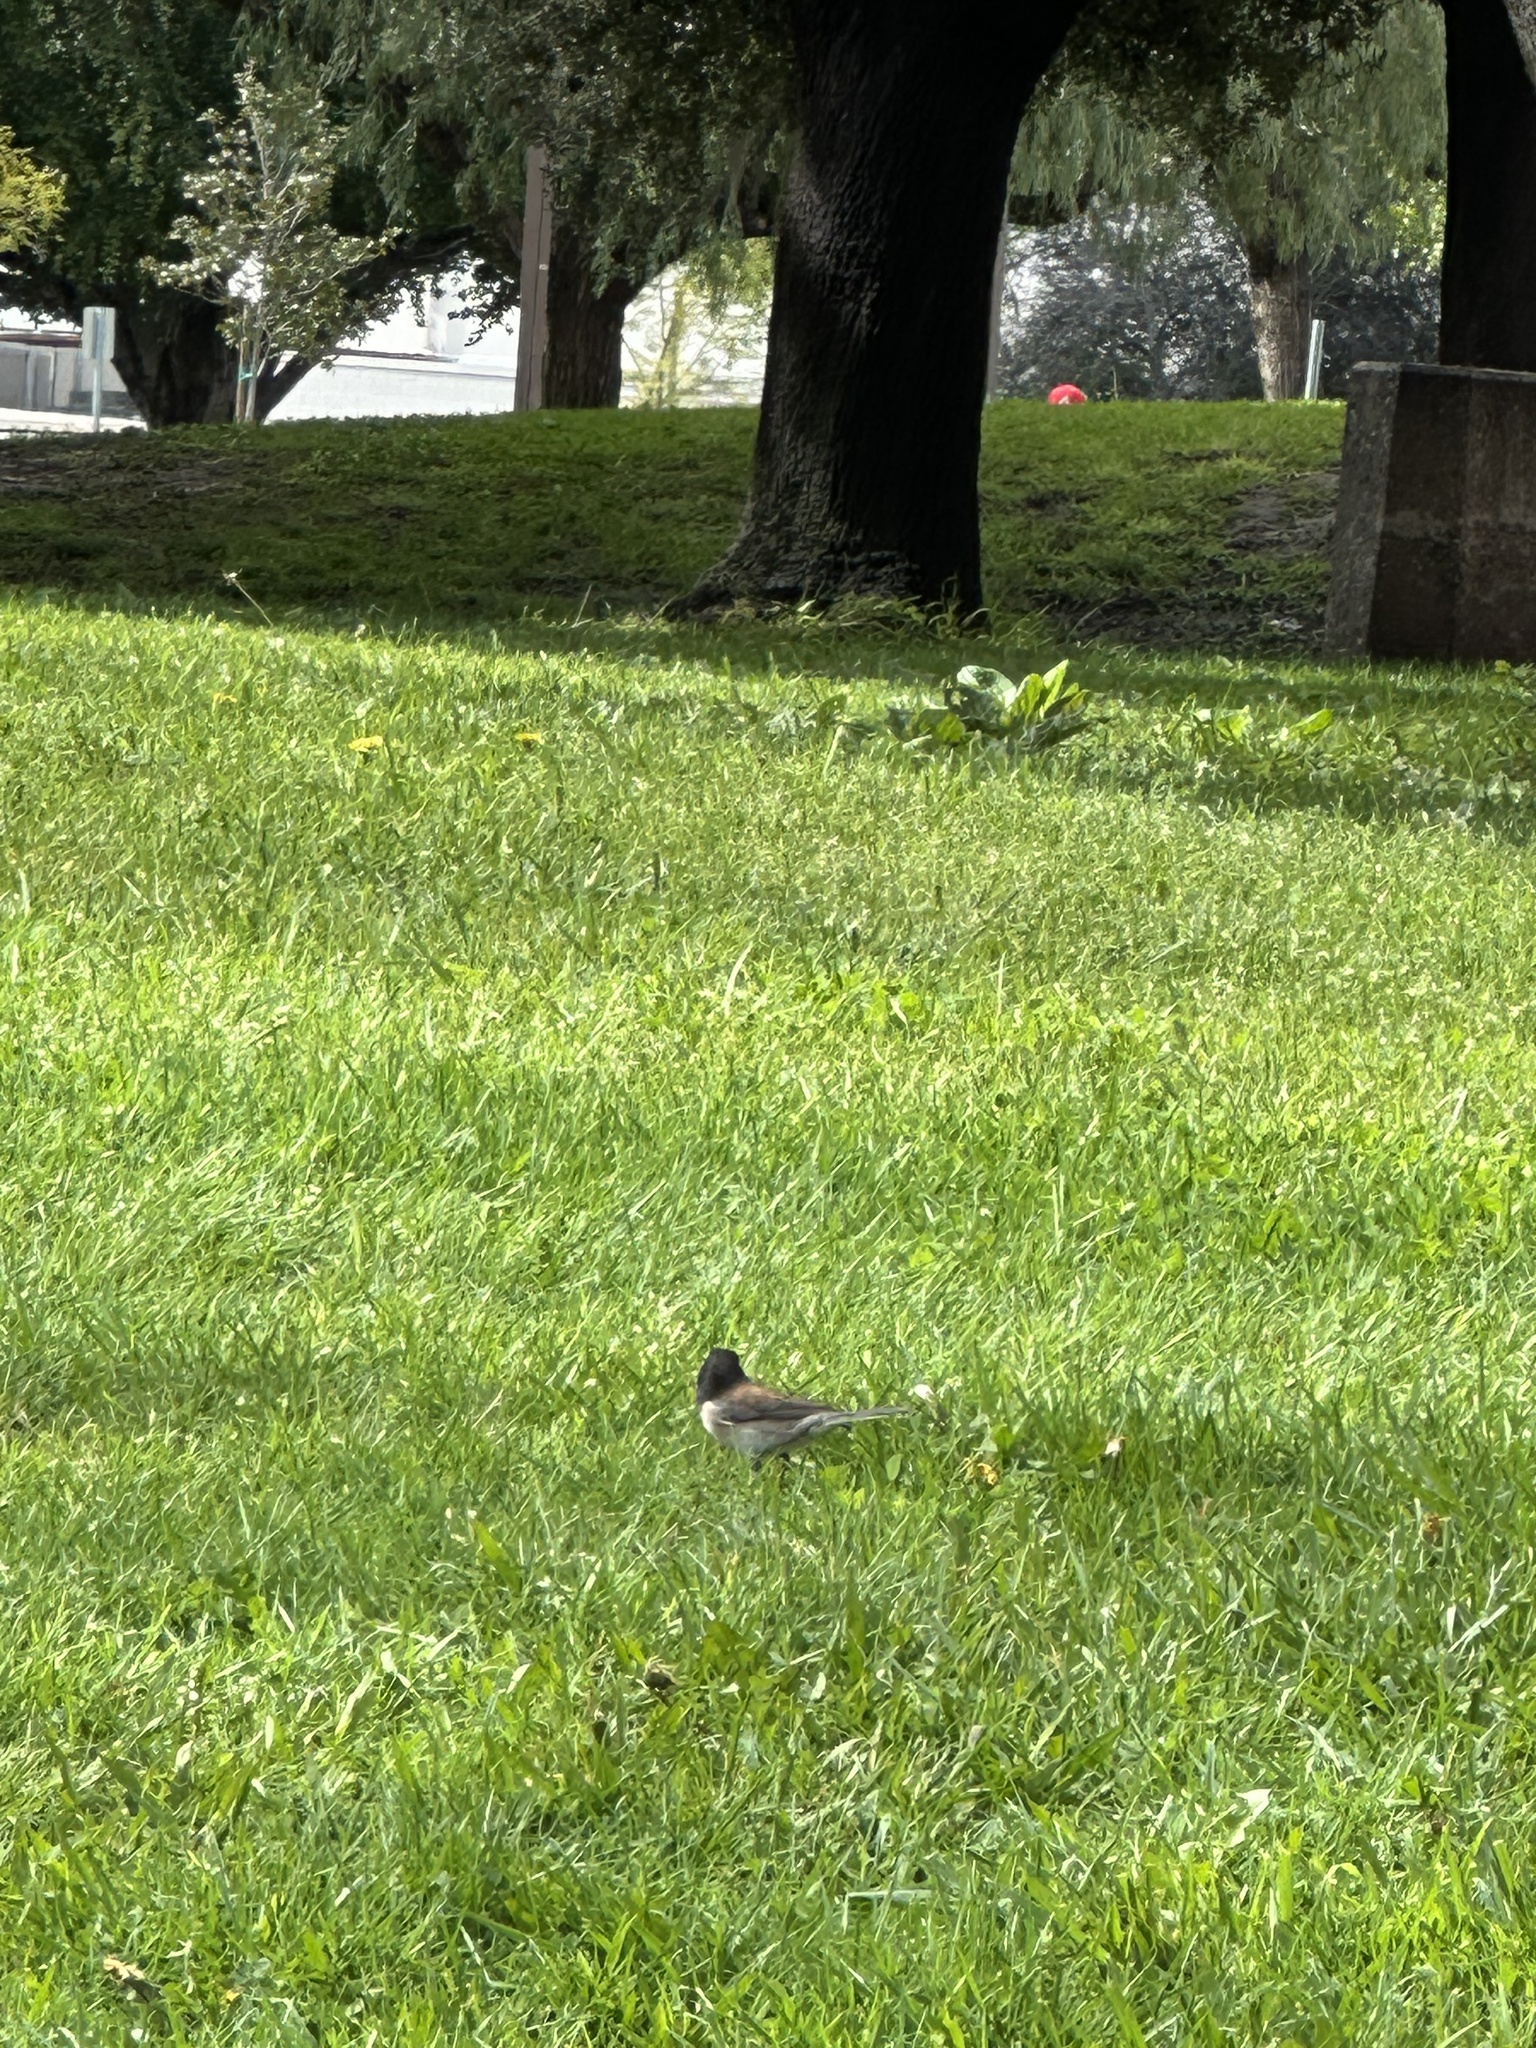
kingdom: Animalia
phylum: Chordata
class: Aves
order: Passeriformes
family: Passerellidae
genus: Junco
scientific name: Junco hyemalis
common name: Dark-eyed junco
